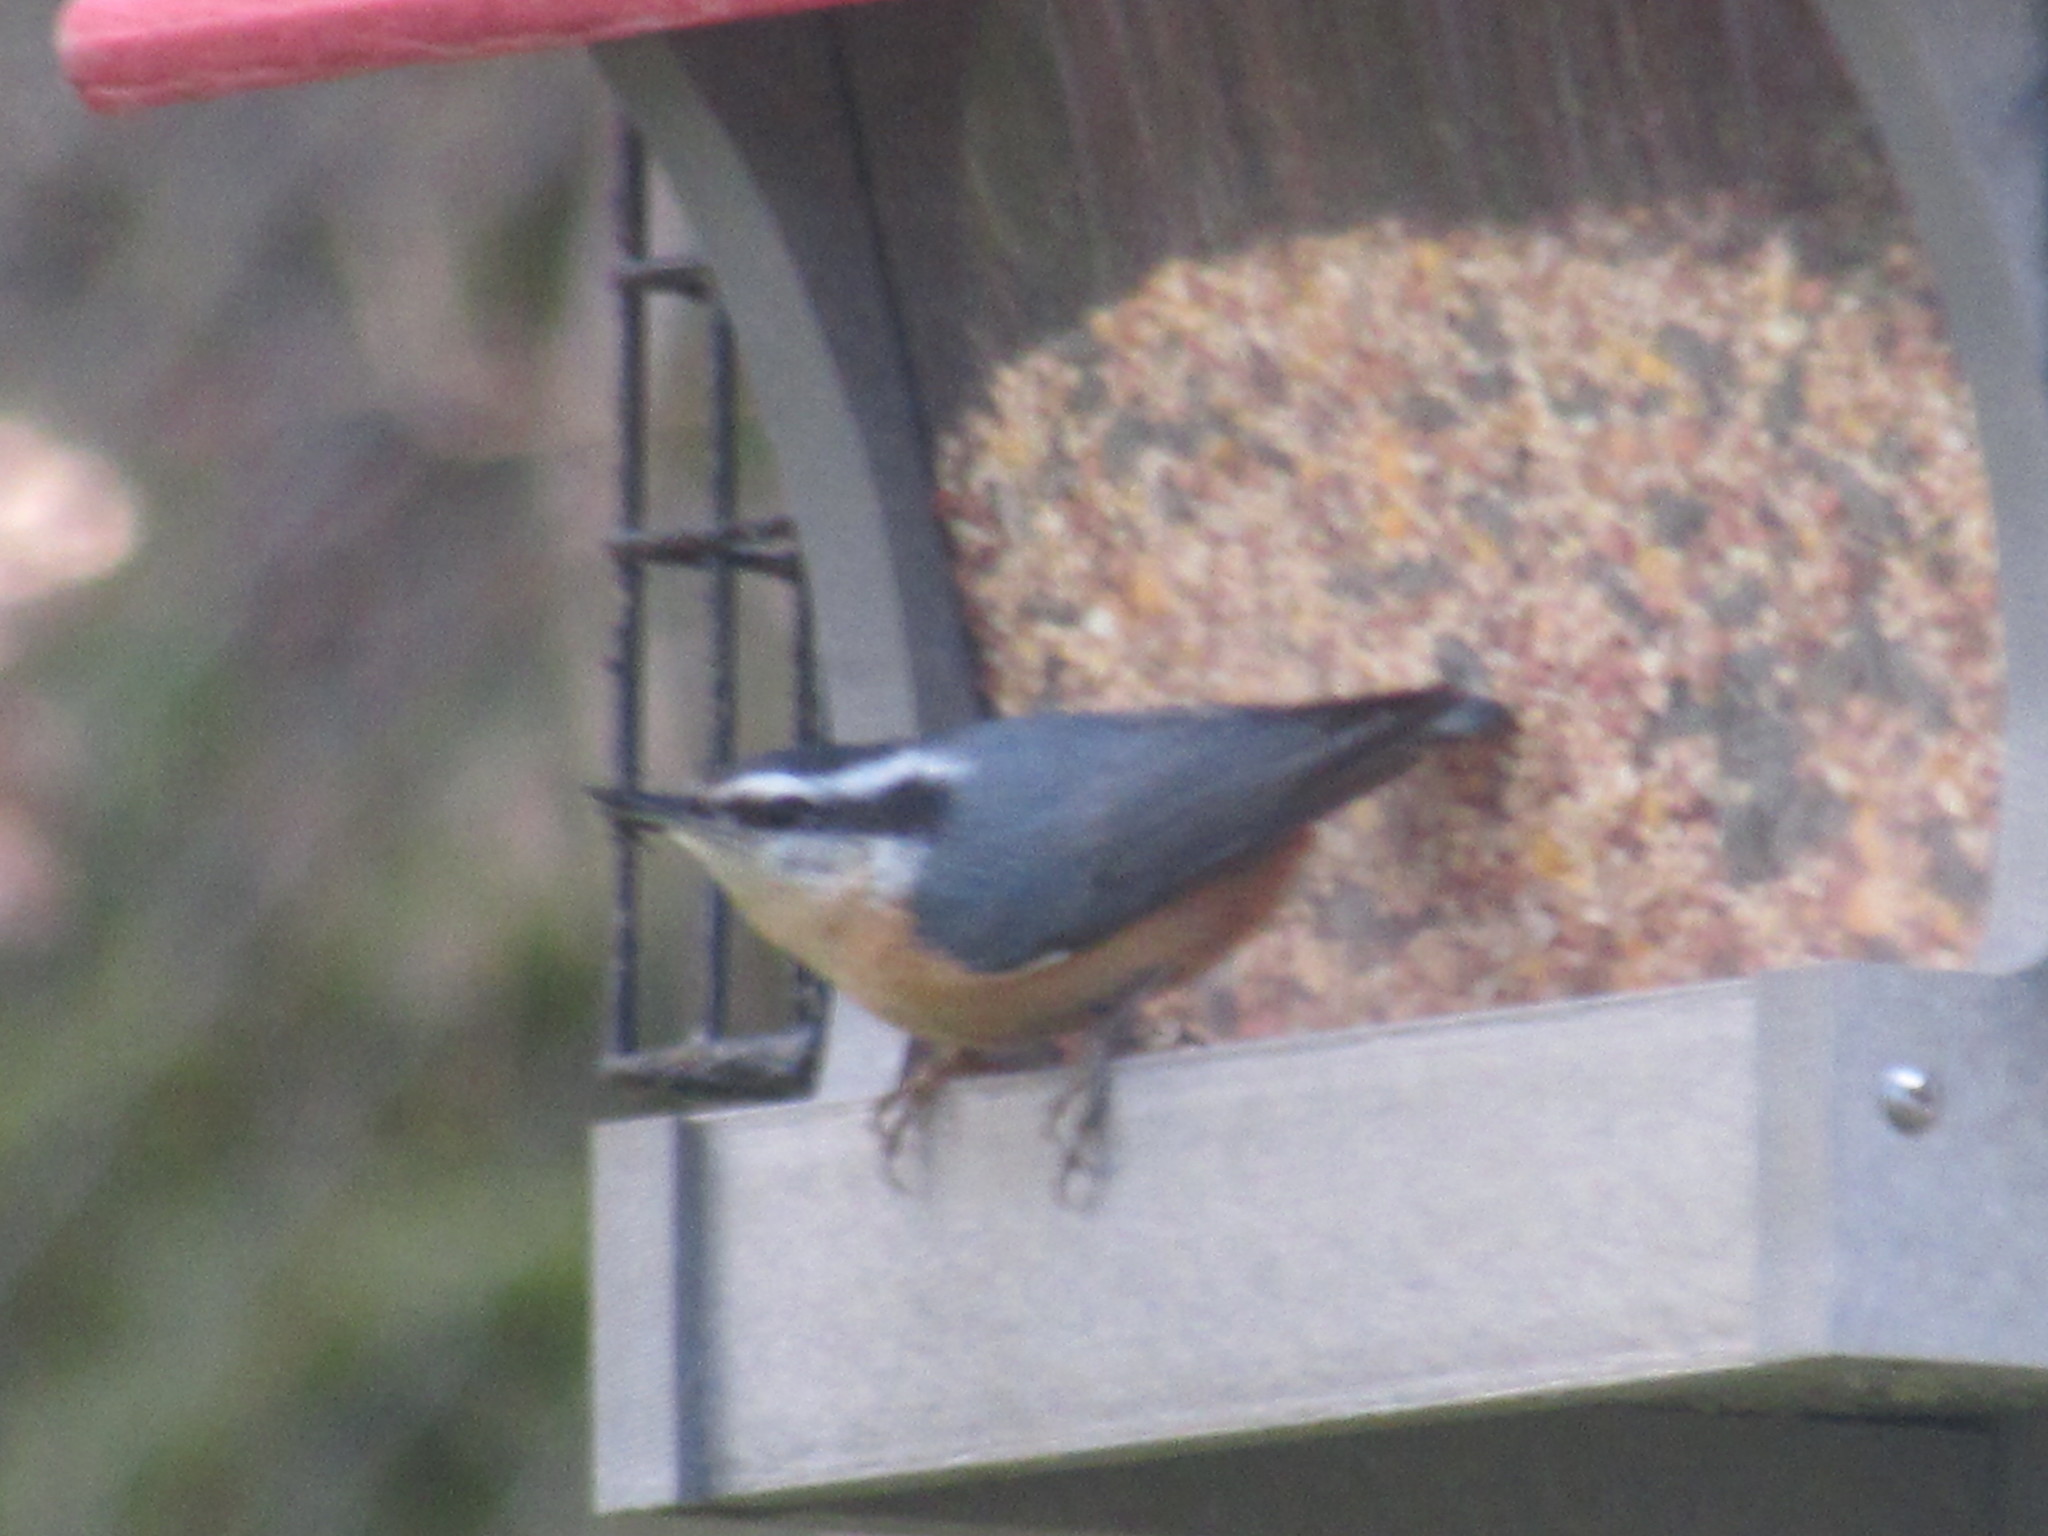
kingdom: Animalia
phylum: Chordata
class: Aves
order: Passeriformes
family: Sittidae
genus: Sitta
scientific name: Sitta canadensis
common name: Red-breasted nuthatch
